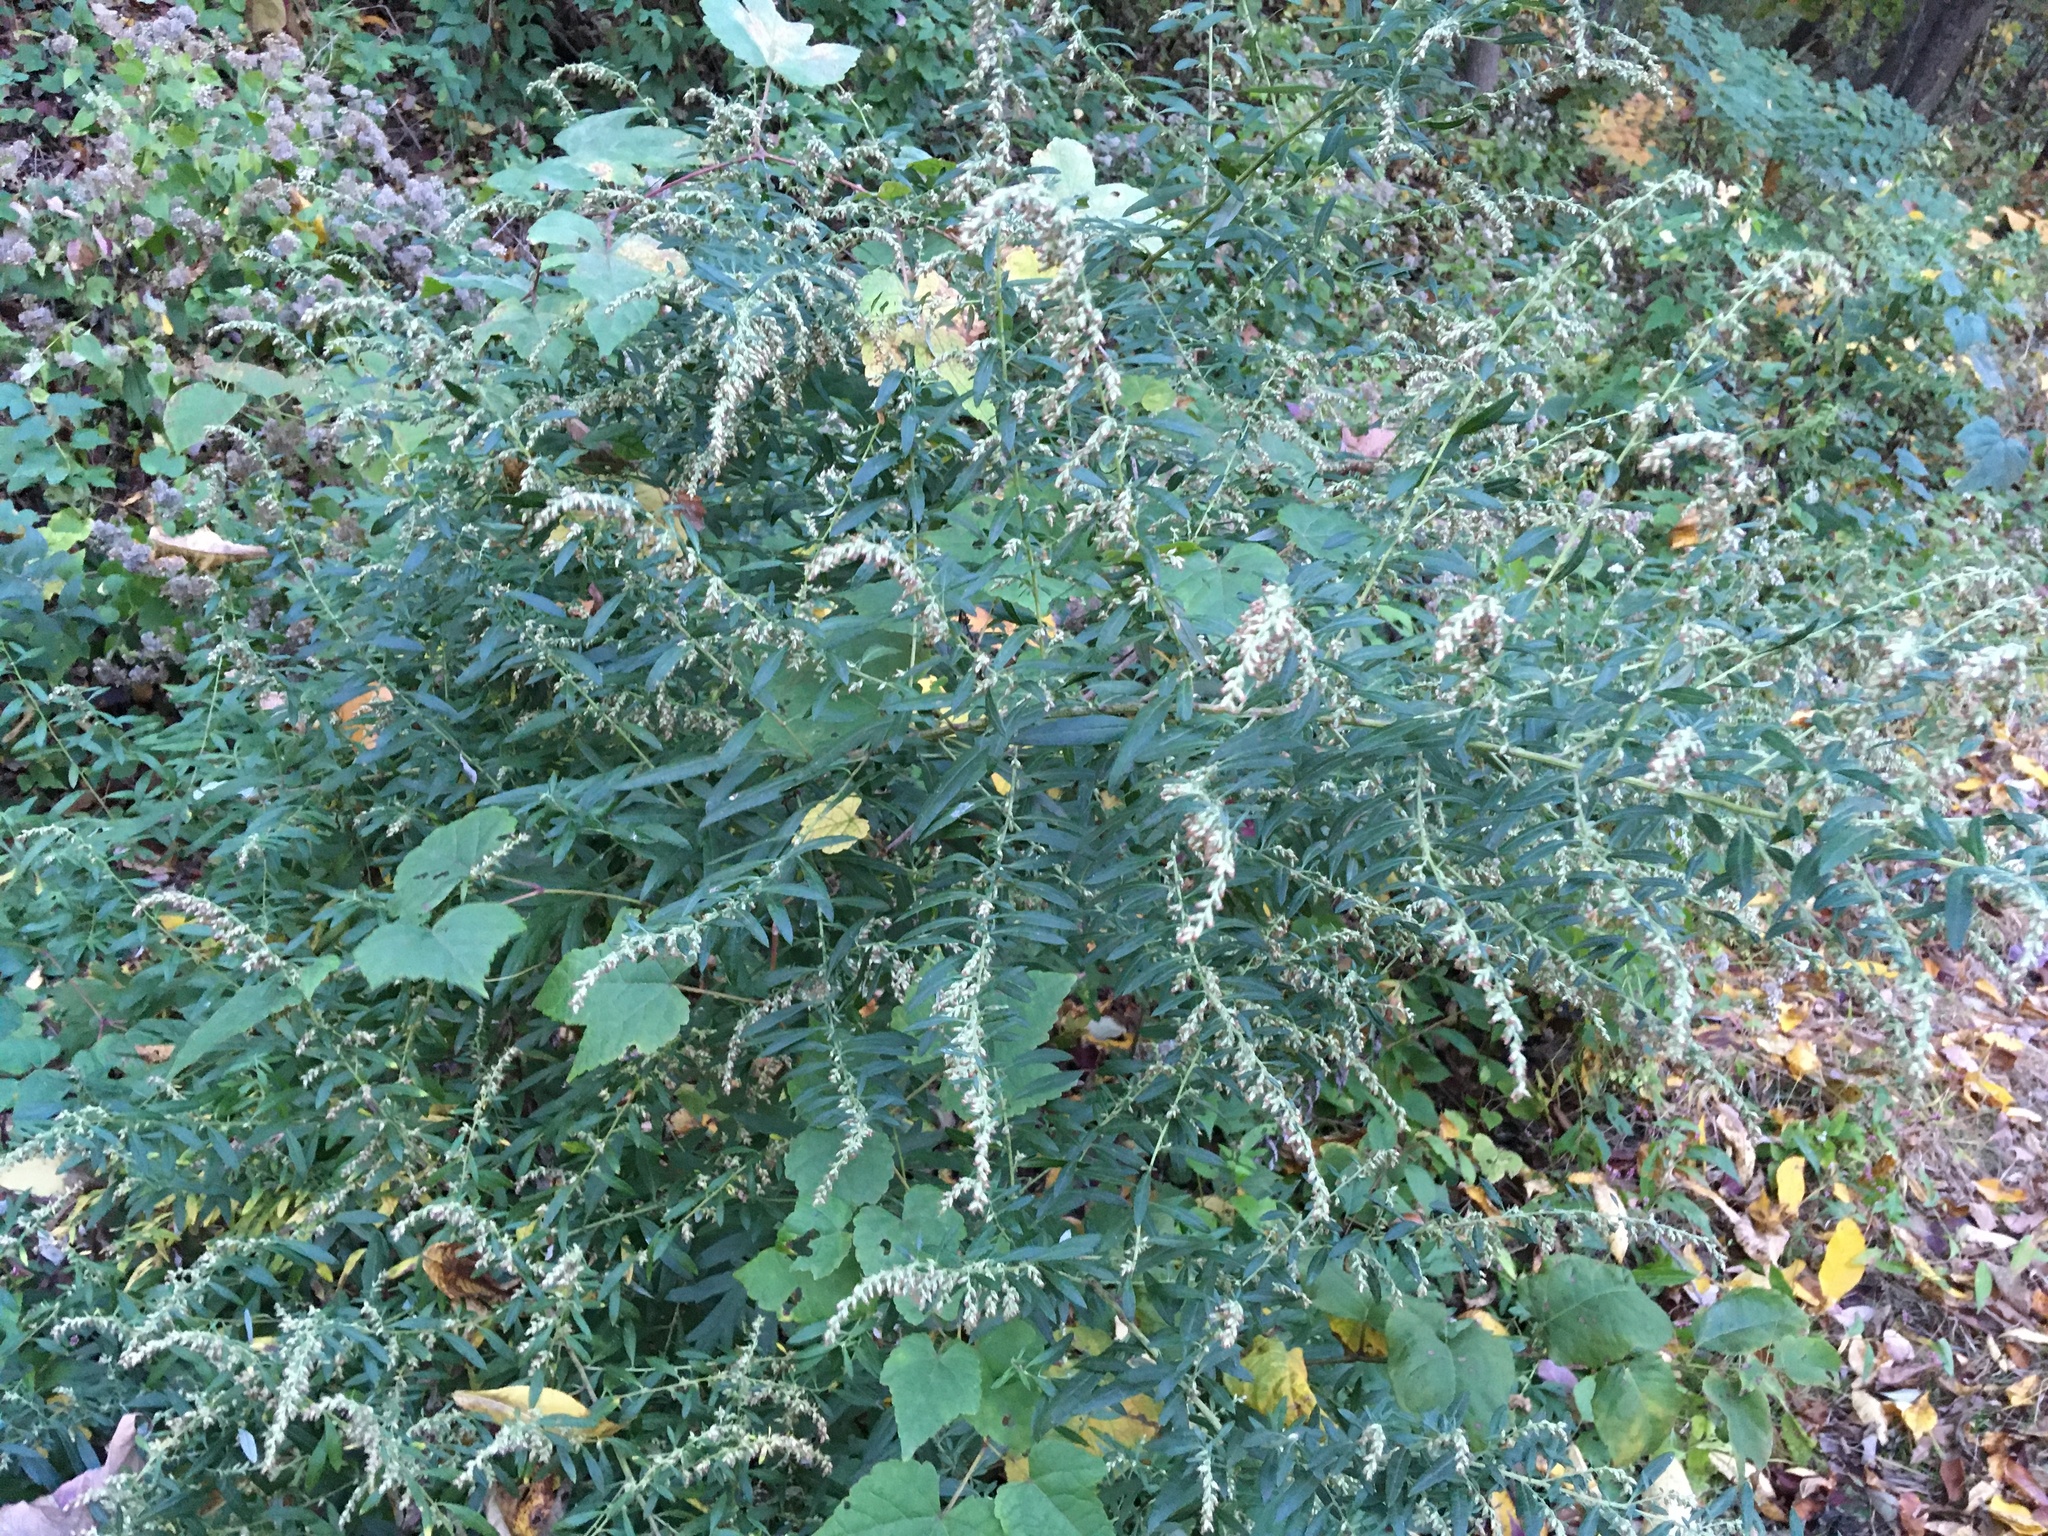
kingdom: Plantae
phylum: Tracheophyta
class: Magnoliopsida
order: Asterales
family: Asteraceae
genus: Artemisia
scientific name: Artemisia vulgaris
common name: Mugwort
